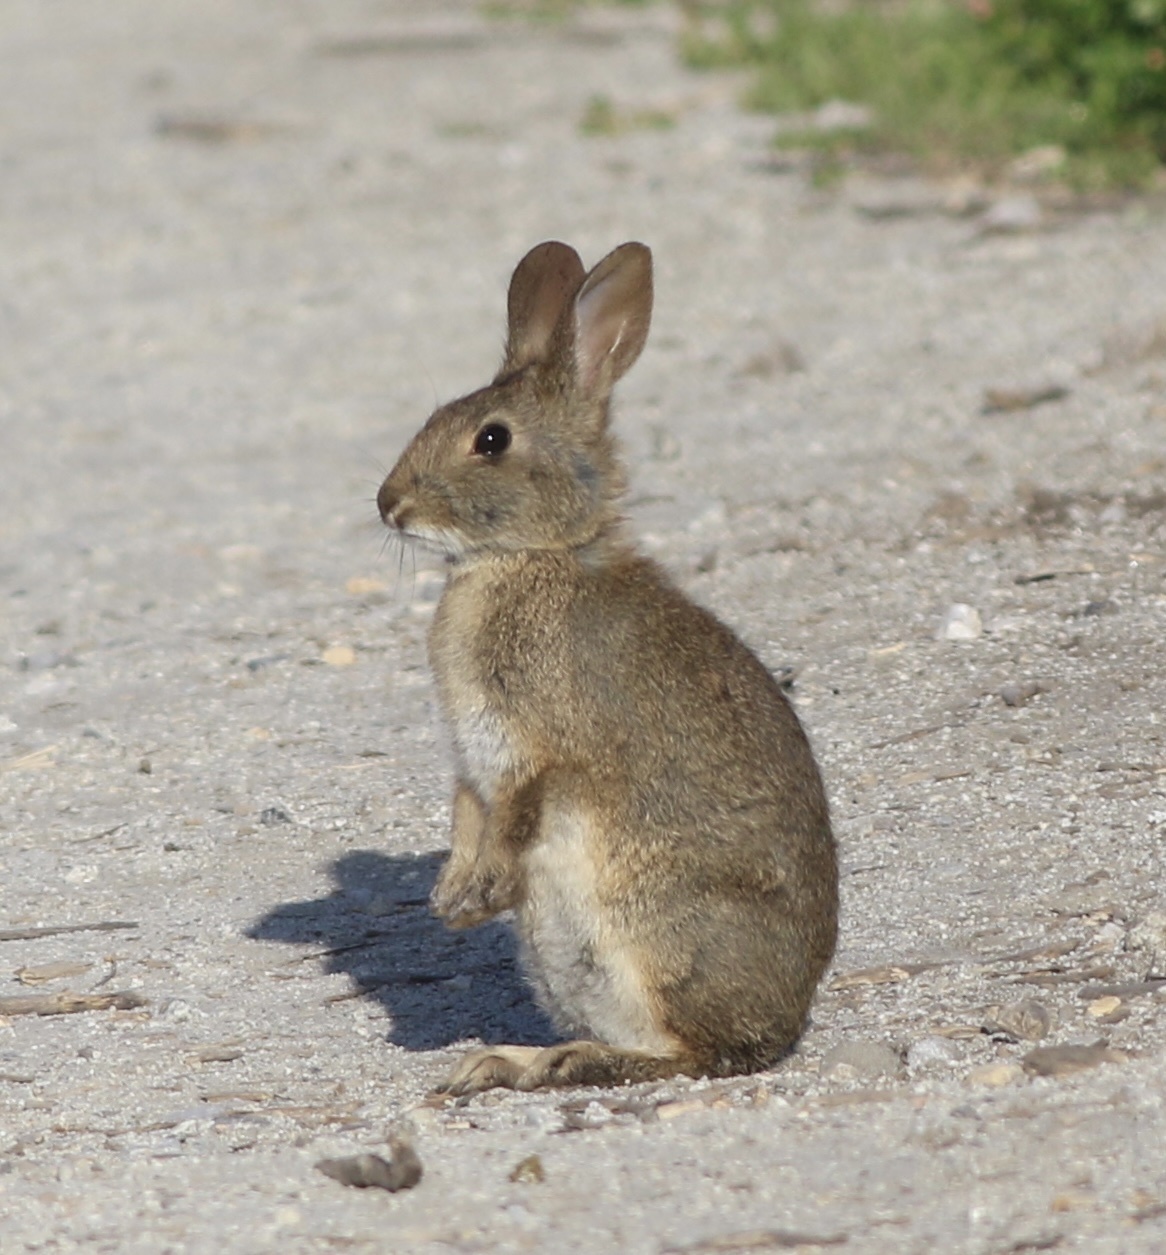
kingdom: Animalia
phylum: Chordata
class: Mammalia
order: Lagomorpha
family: Leporidae
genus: Sylvilagus
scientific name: Sylvilagus bachmani
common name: Brush rabbit
